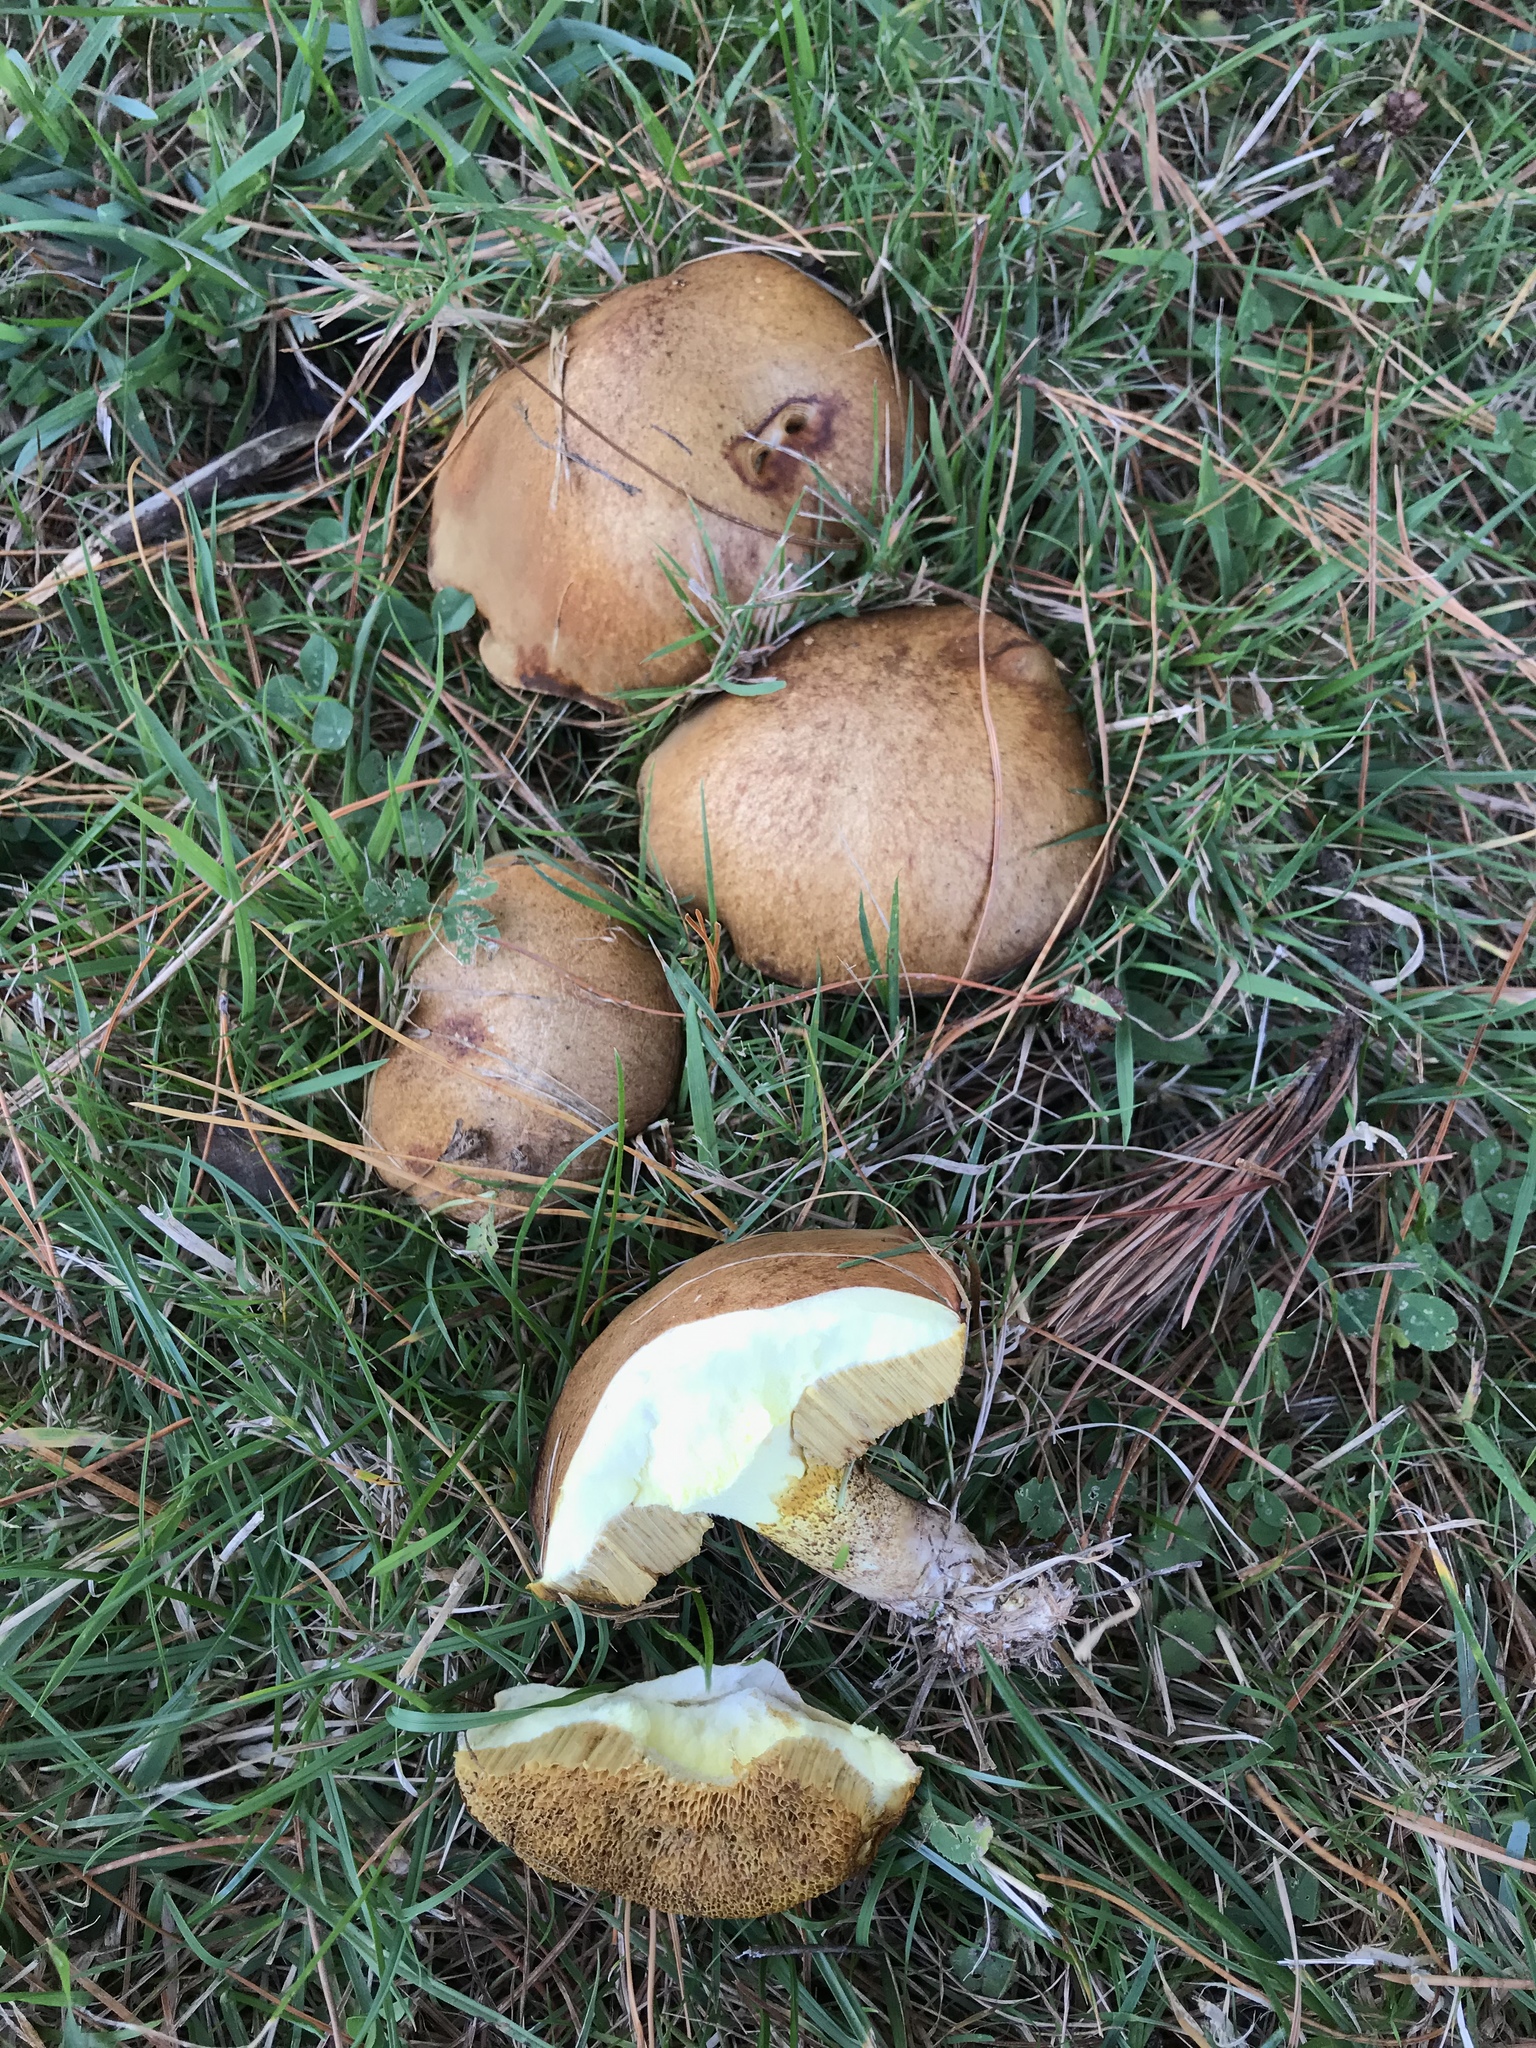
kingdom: Fungi
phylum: Basidiomycota
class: Agaricomycetes
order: Boletales
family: Suillaceae
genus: Suillus
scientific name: Suillus granulatus
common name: Weeping bolete
